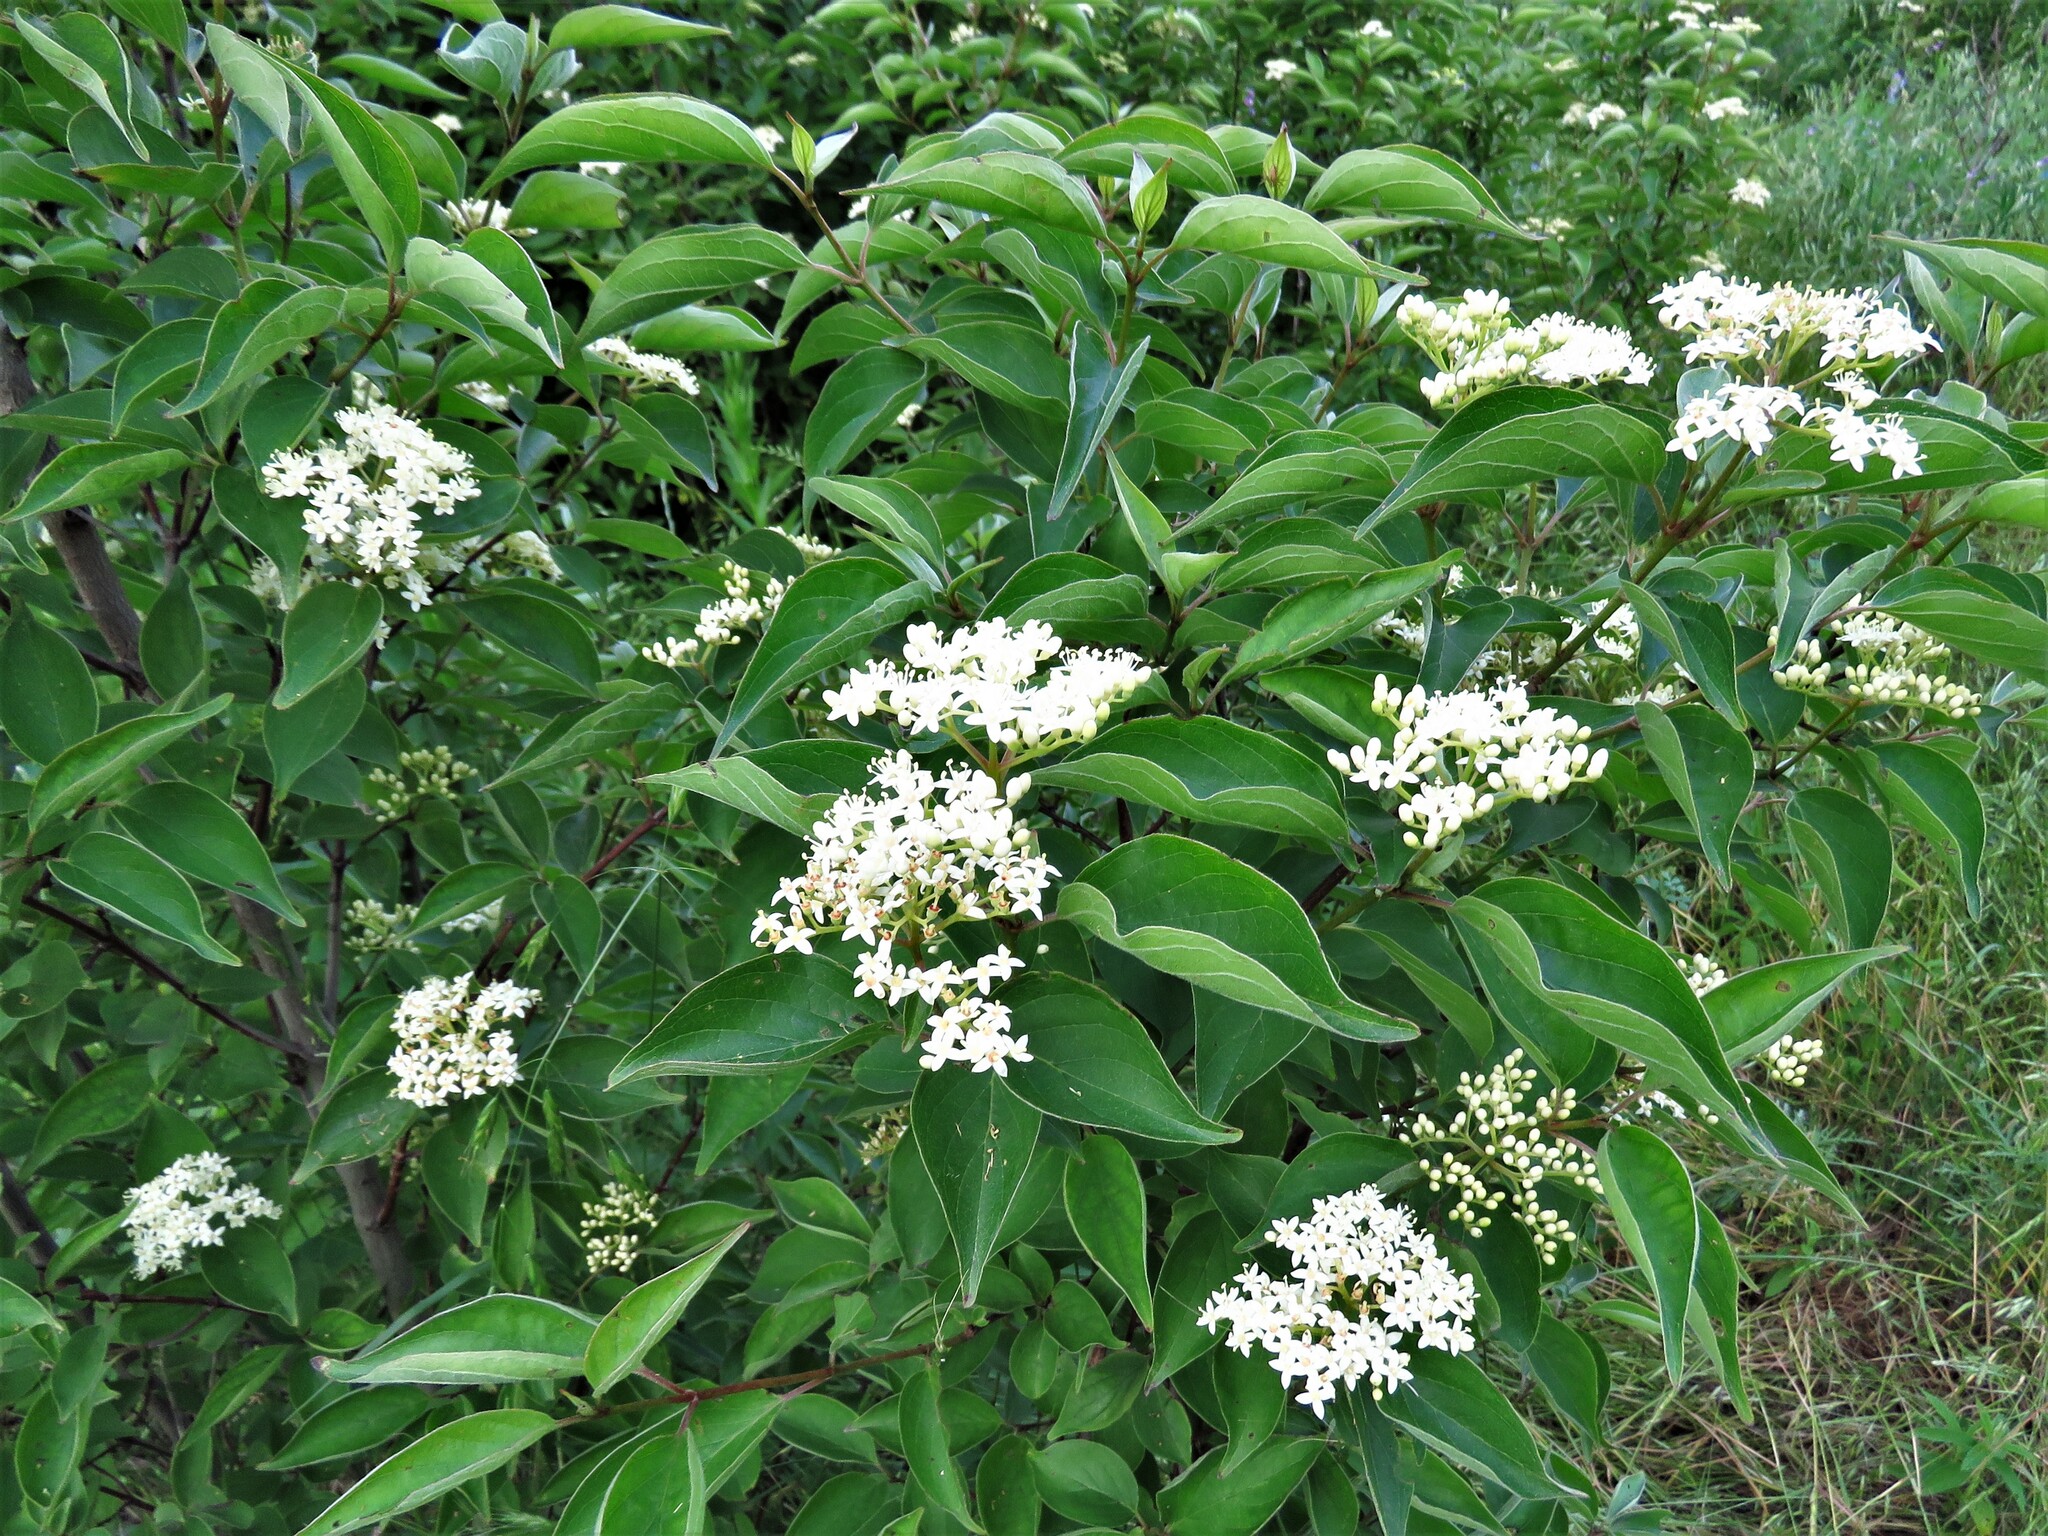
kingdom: Plantae
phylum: Tracheophyta
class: Magnoliopsida
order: Cornales
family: Cornaceae
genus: Cornus
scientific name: Cornus drummondii
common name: Rough-leaf dogwood
